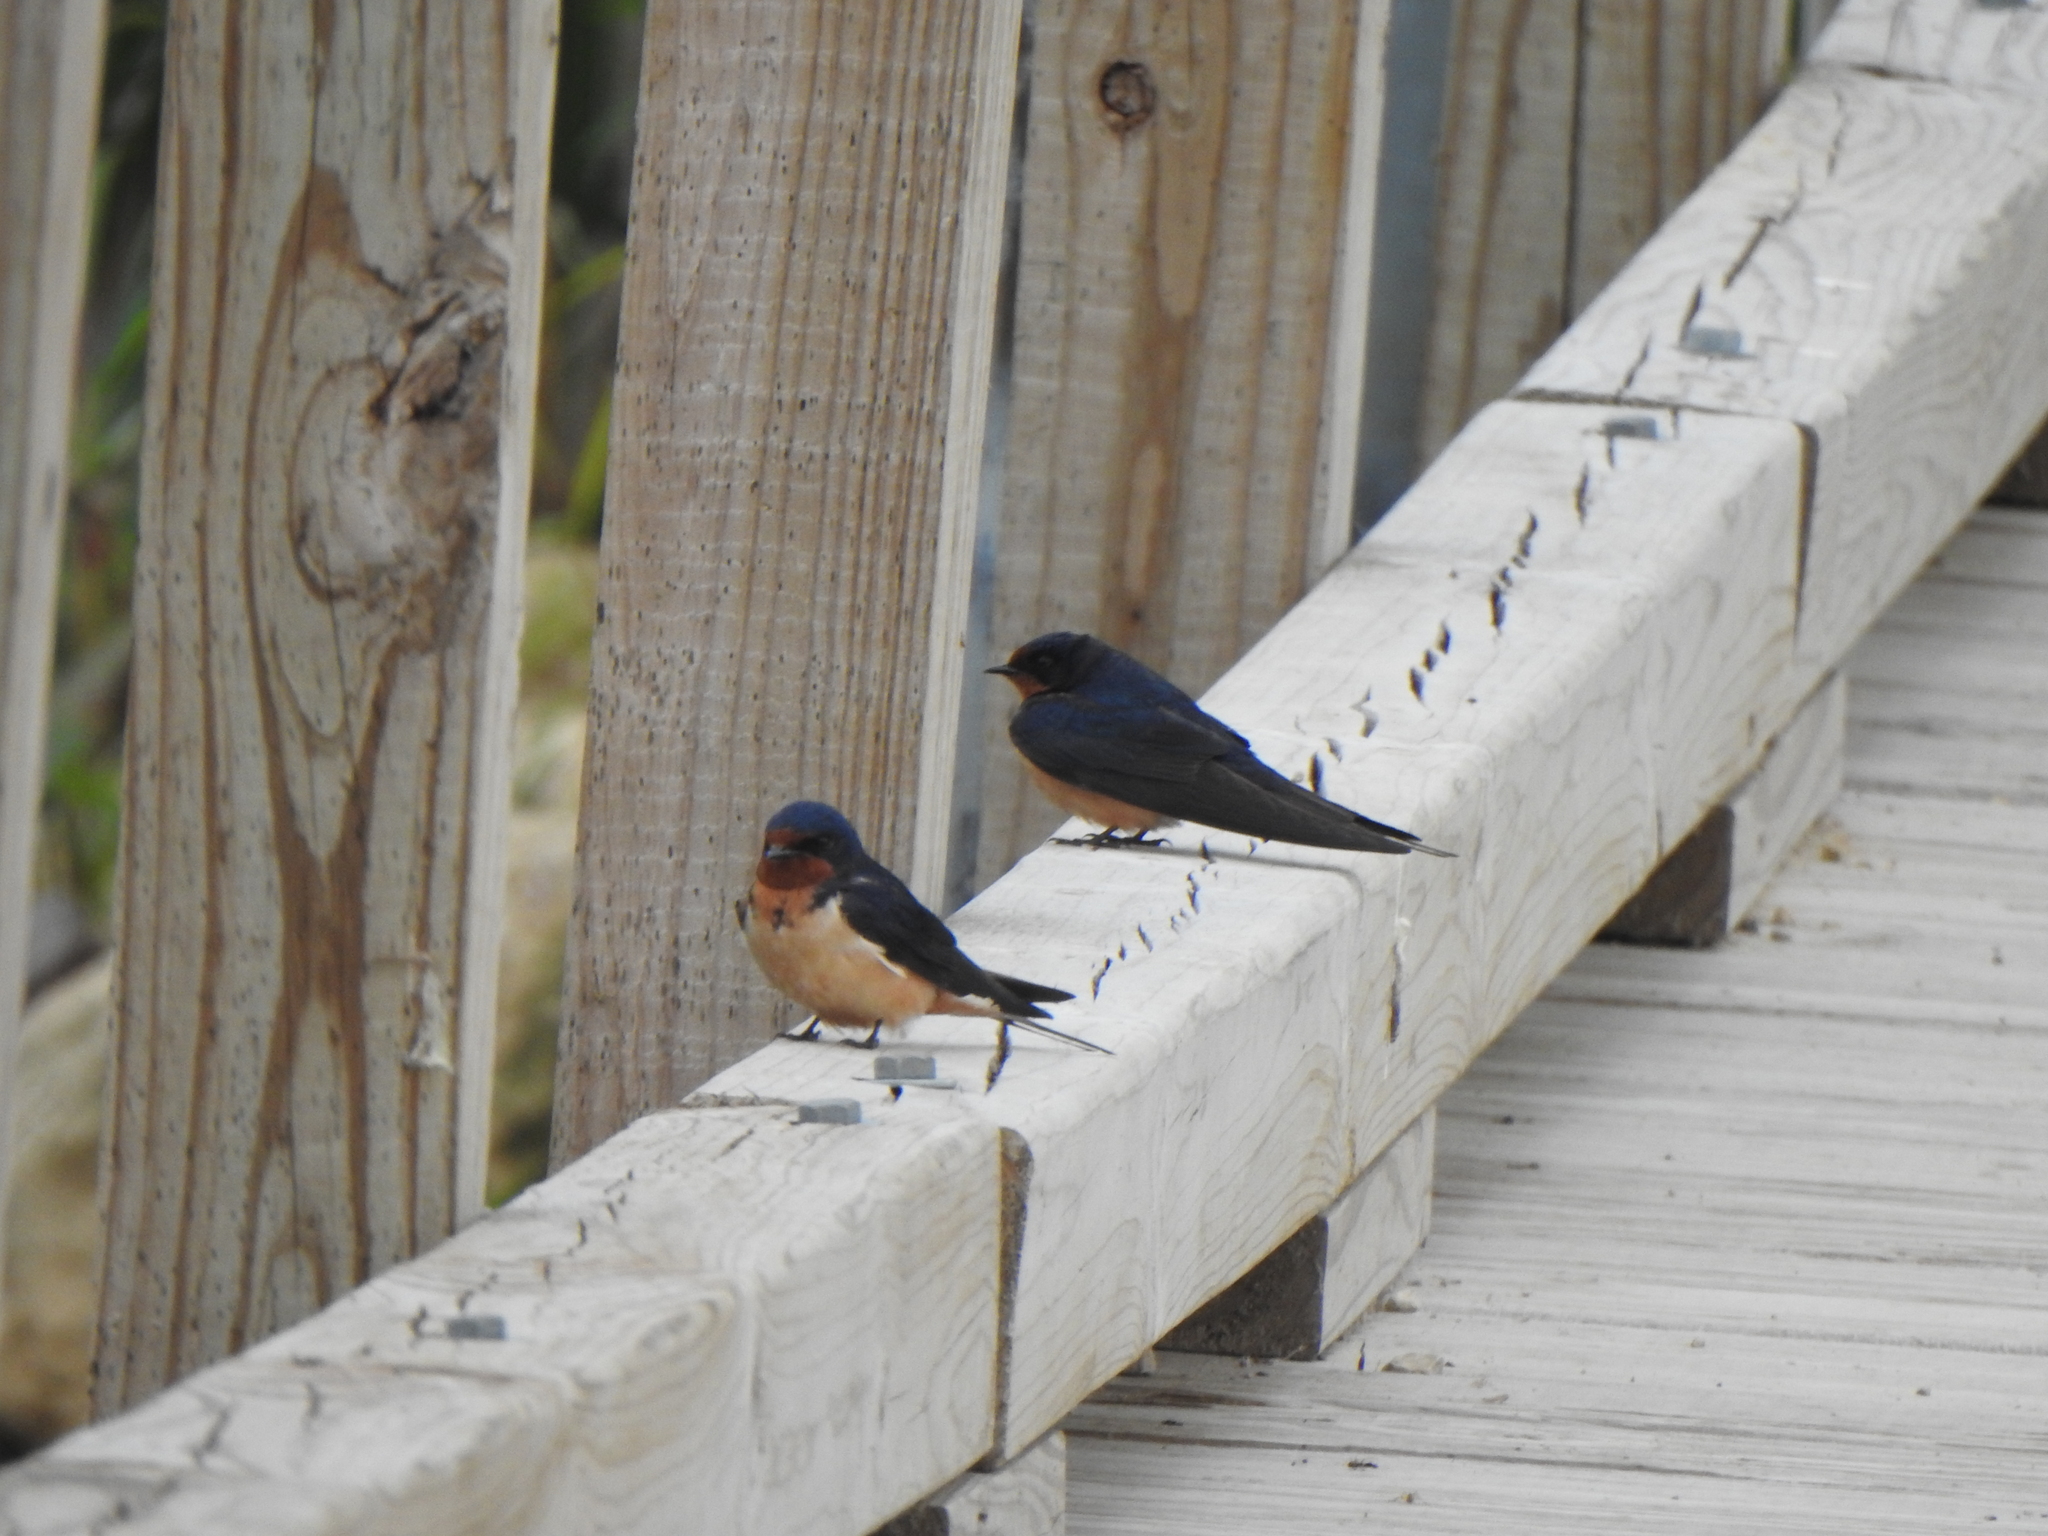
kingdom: Animalia
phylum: Chordata
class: Aves
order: Passeriformes
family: Hirundinidae
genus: Hirundo
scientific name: Hirundo rustica
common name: Barn swallow
